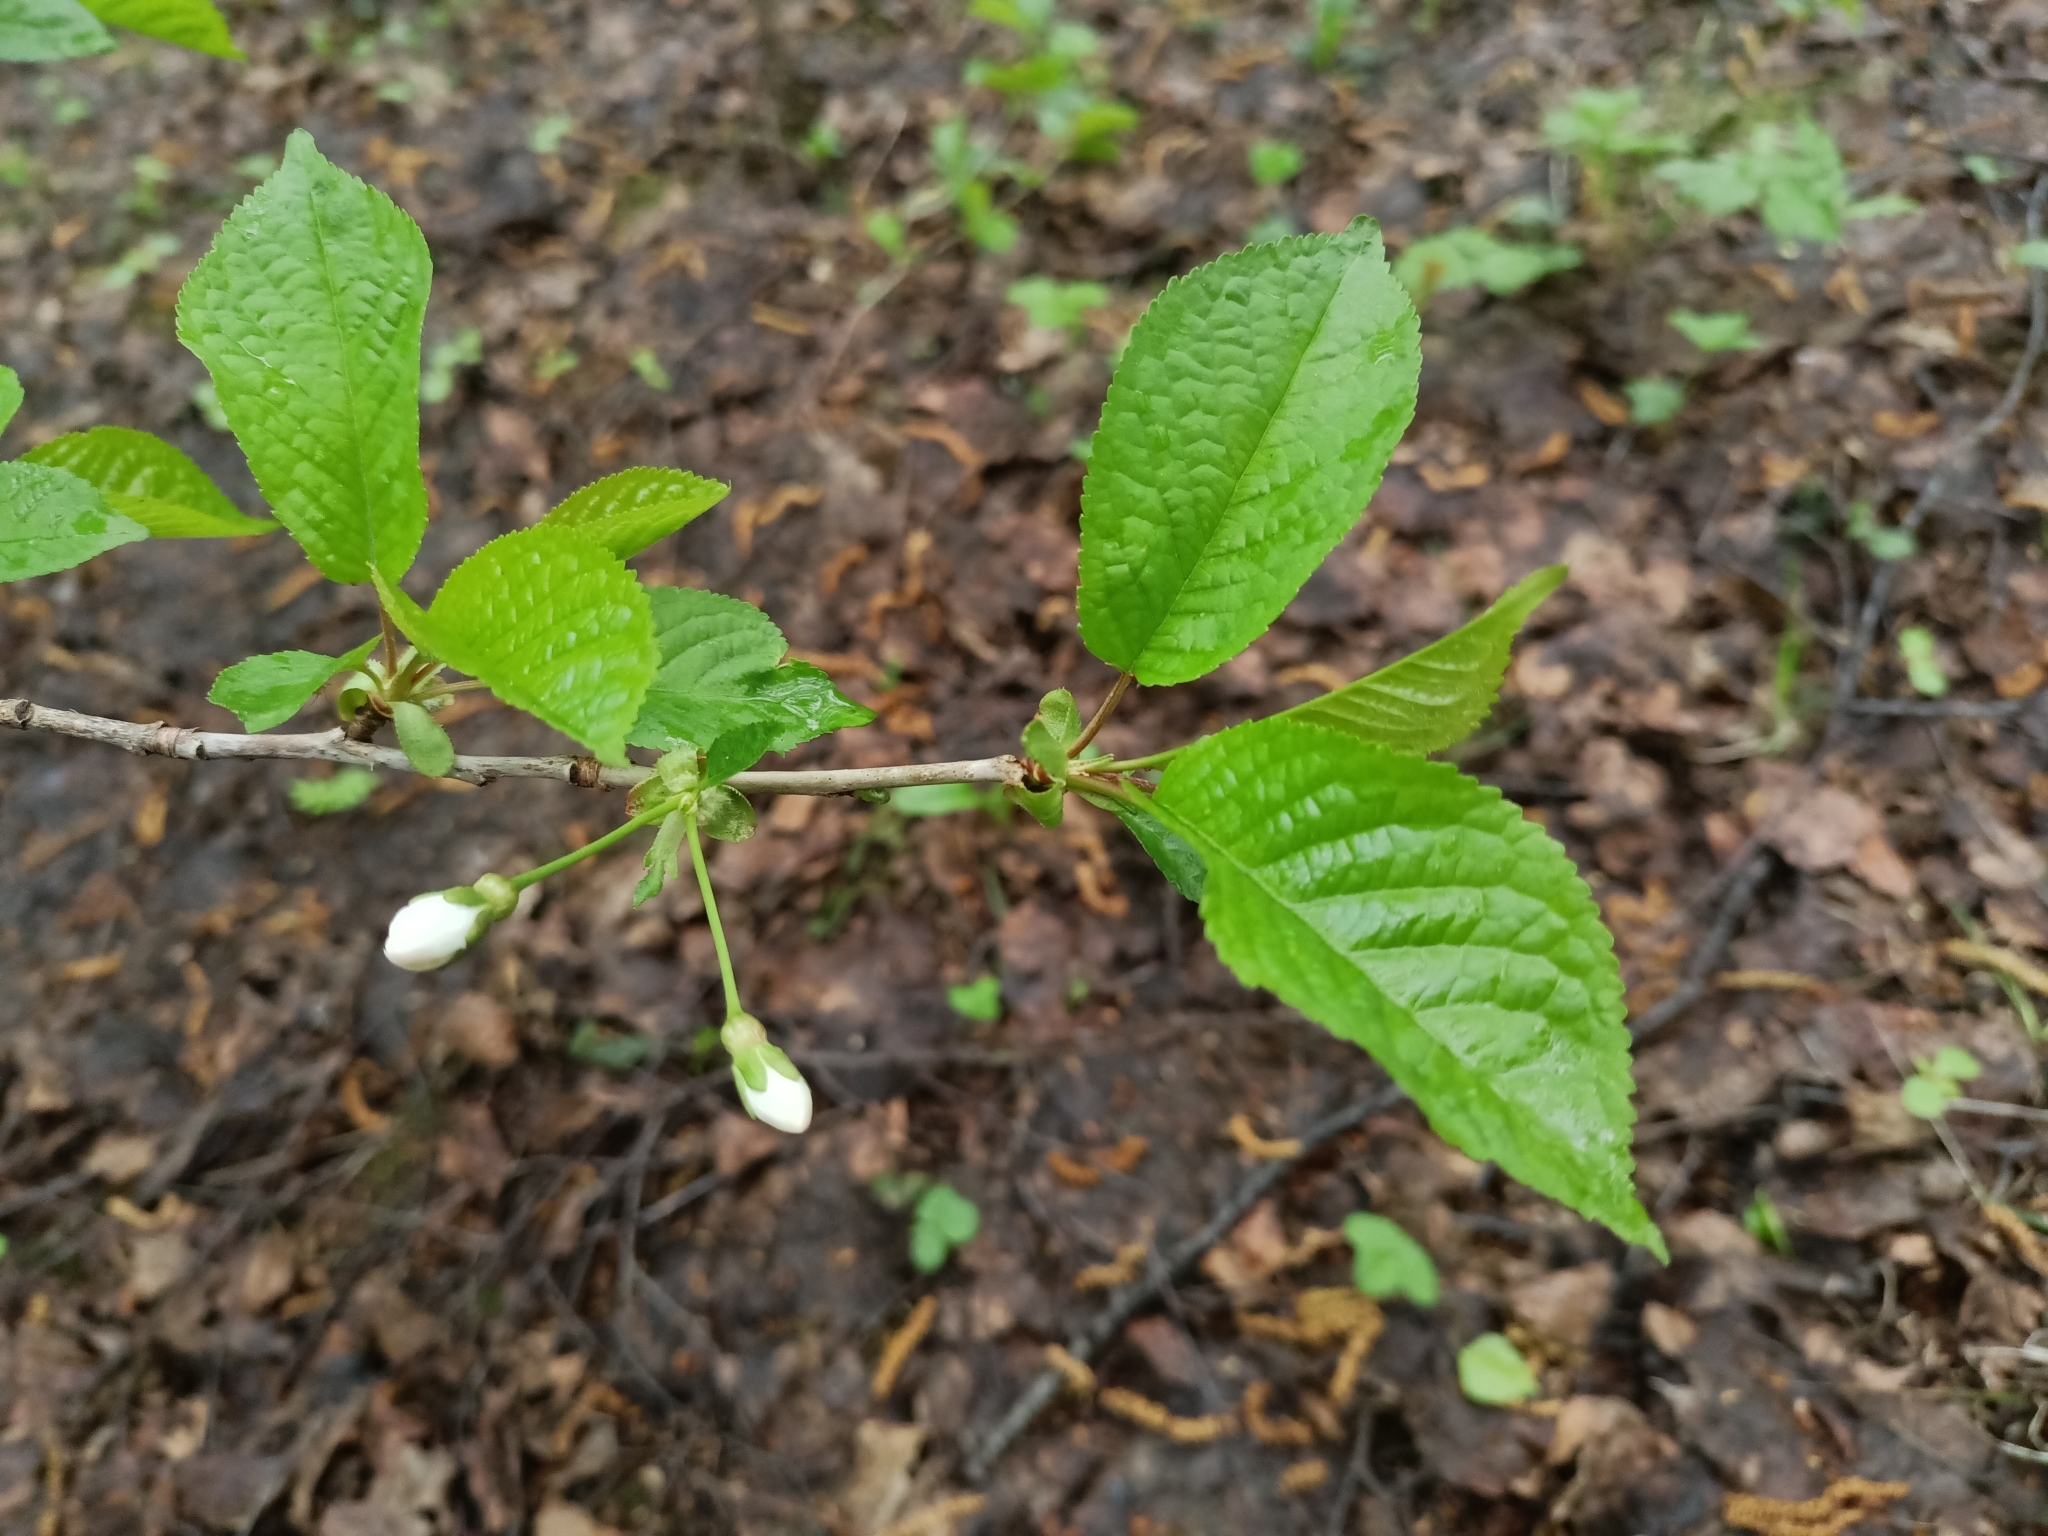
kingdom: Plantae
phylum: Tracheophyta
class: Magnoliopsida
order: Rosales
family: Rosaceae
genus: Prunus
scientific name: Prunus avium
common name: Sweet cherry
